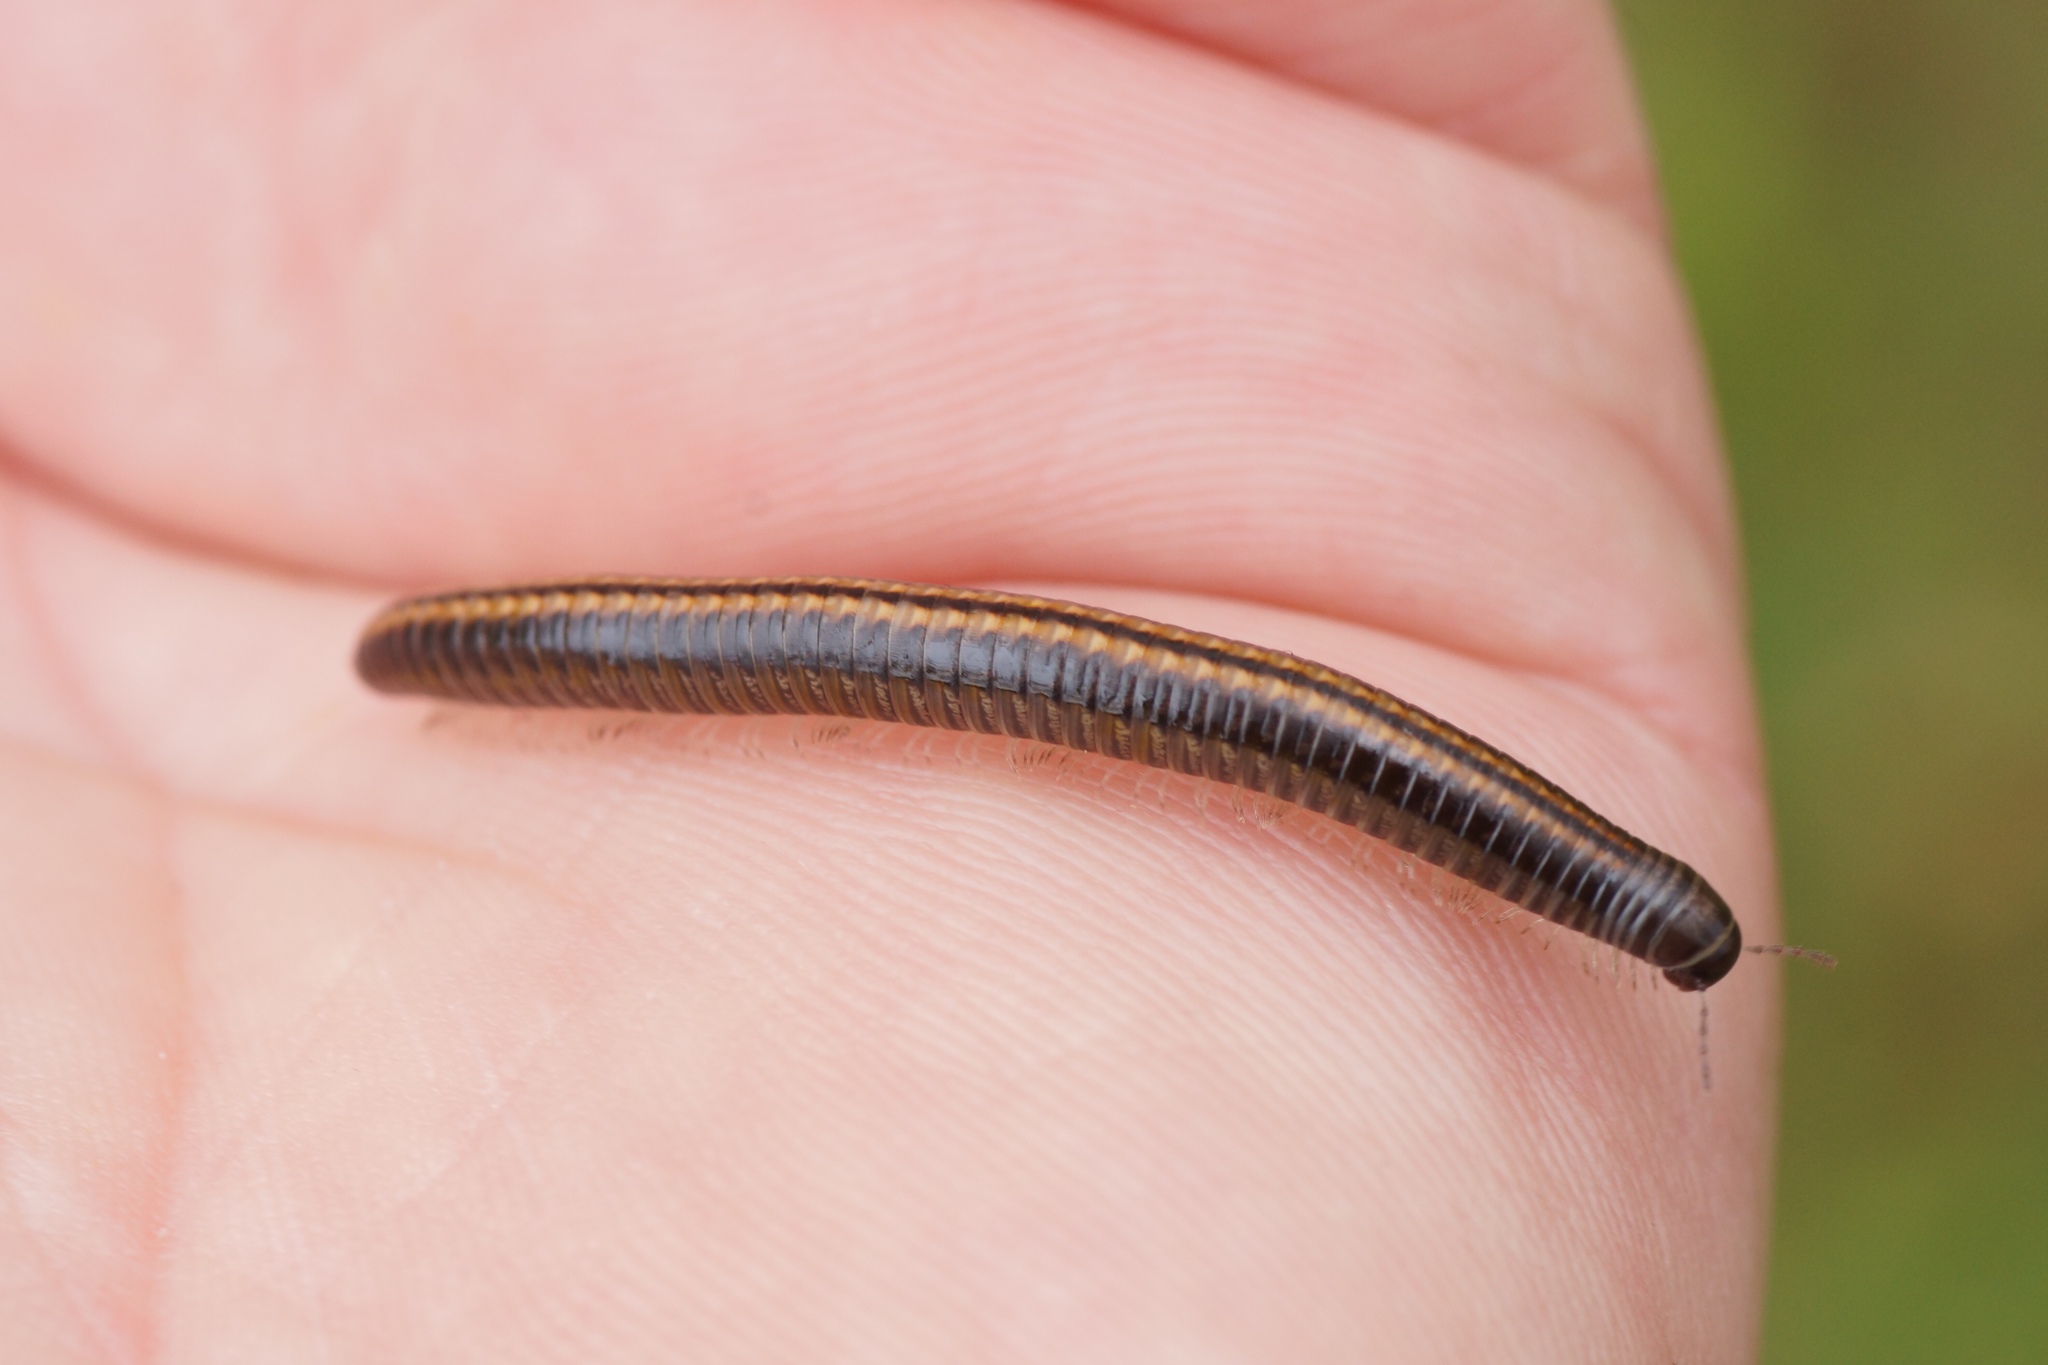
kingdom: Animalia
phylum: Arthropoda
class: Diplopoda
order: Julida
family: Julidae
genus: Ommatoiulus
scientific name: Ommatoiulus sabulosus
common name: Striped millipede
